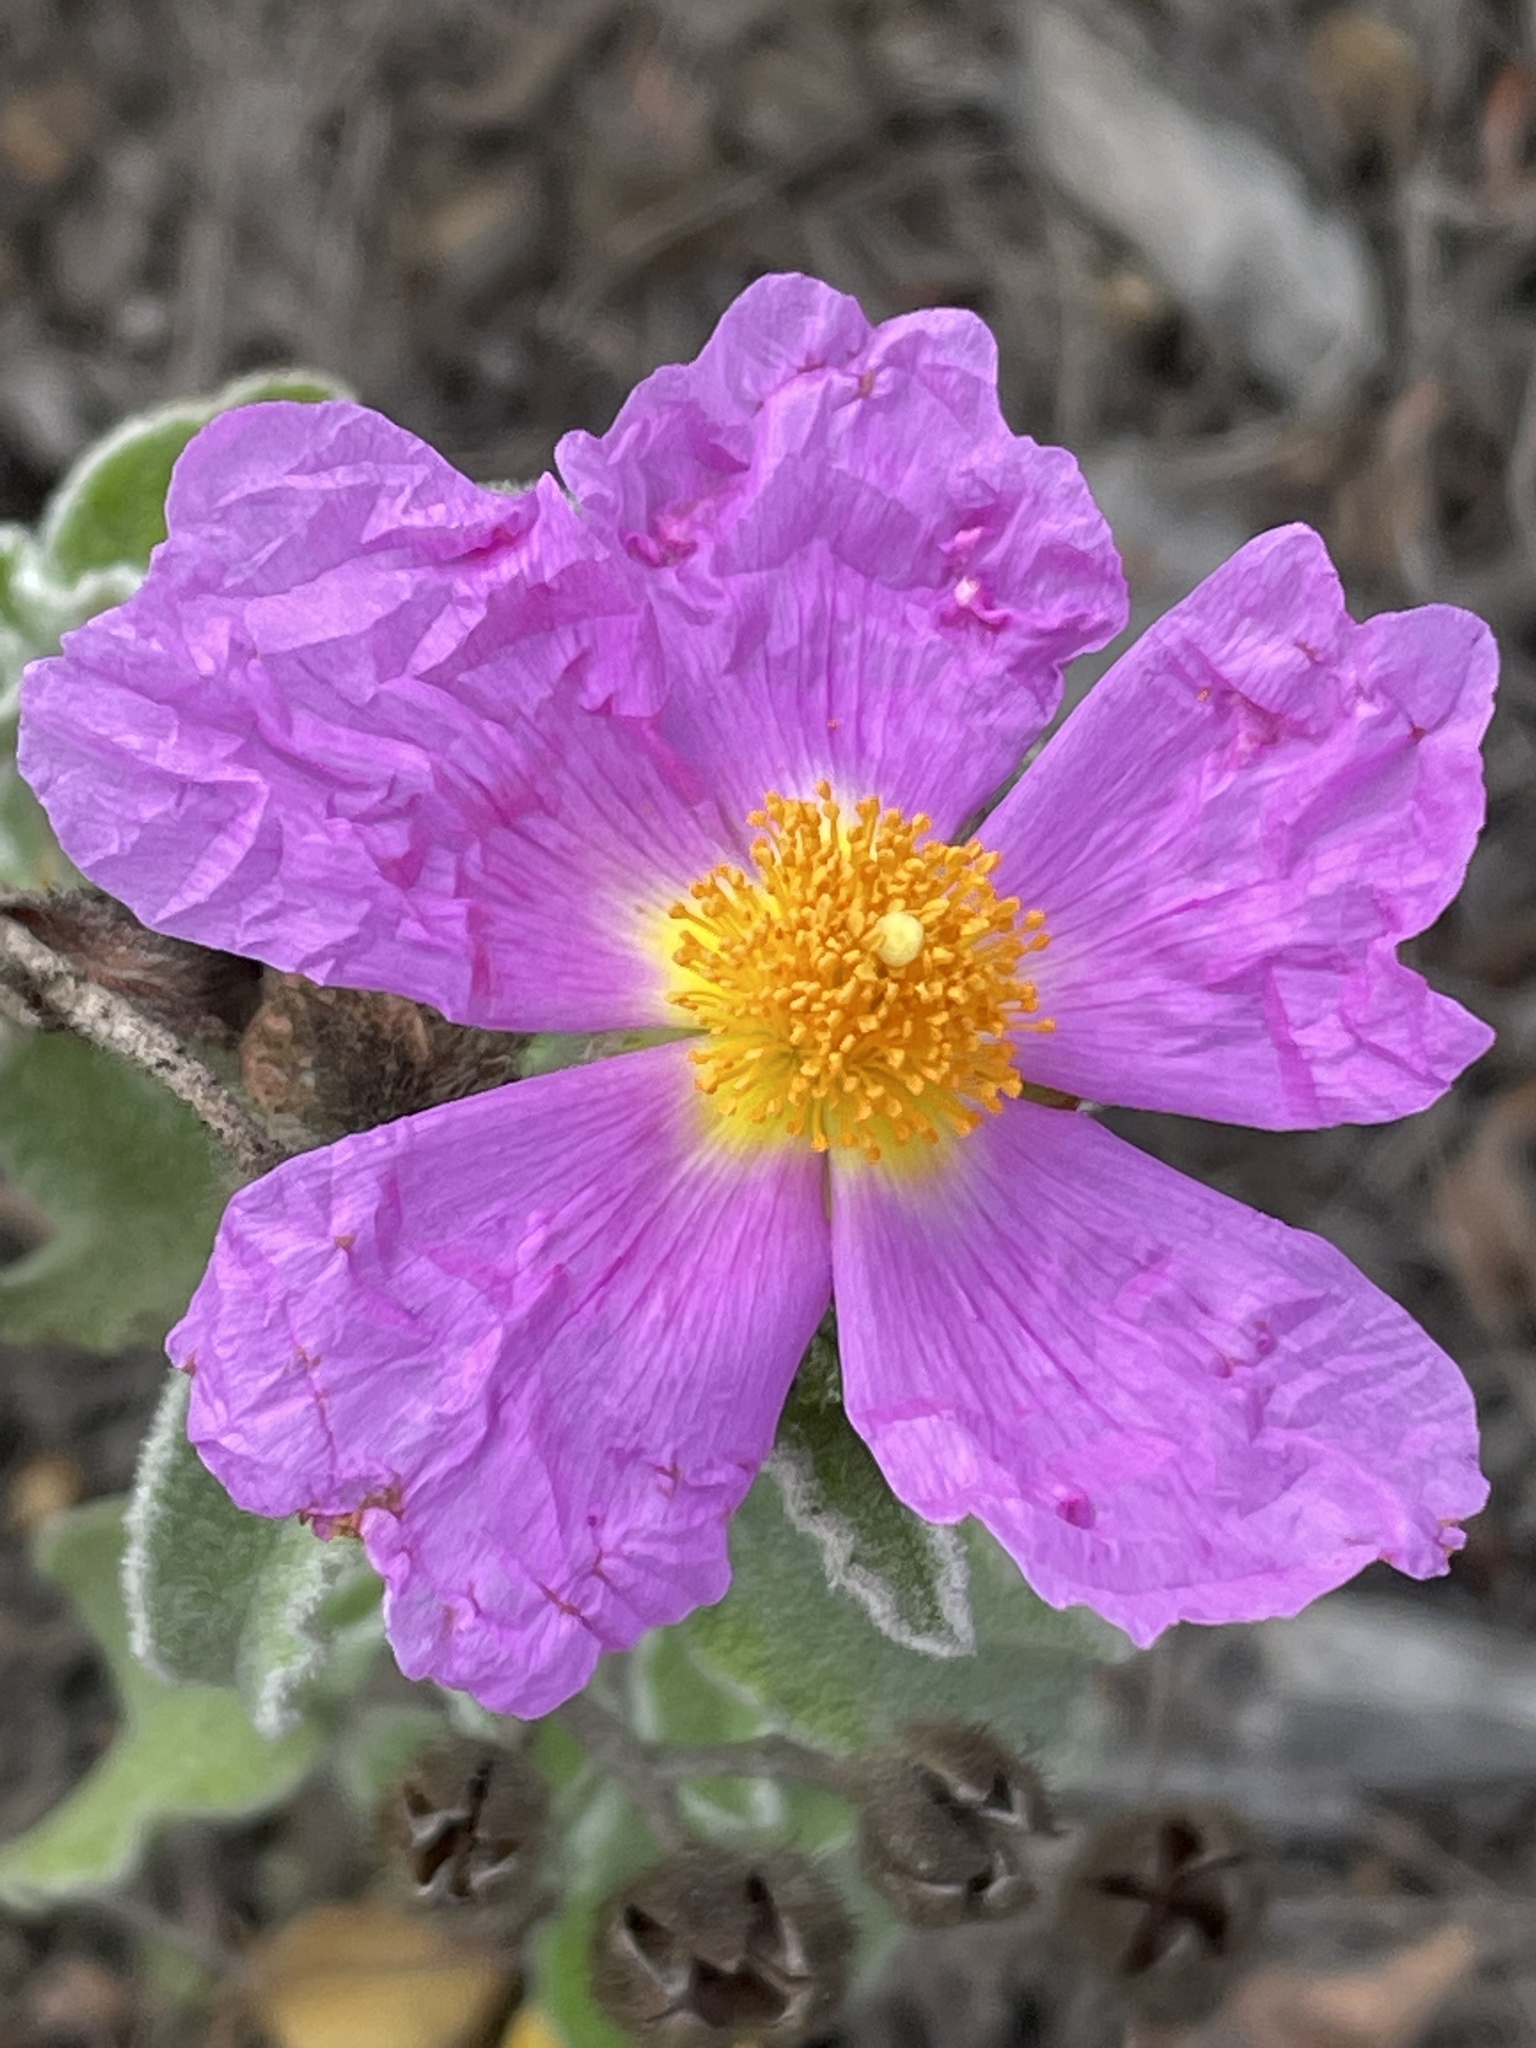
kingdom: Plantae
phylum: Tracheophyta
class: Magnoliopsida
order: Malvales
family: Cistaceae
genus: Cistus
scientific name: Cistus creticus
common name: Cretan rockrose
